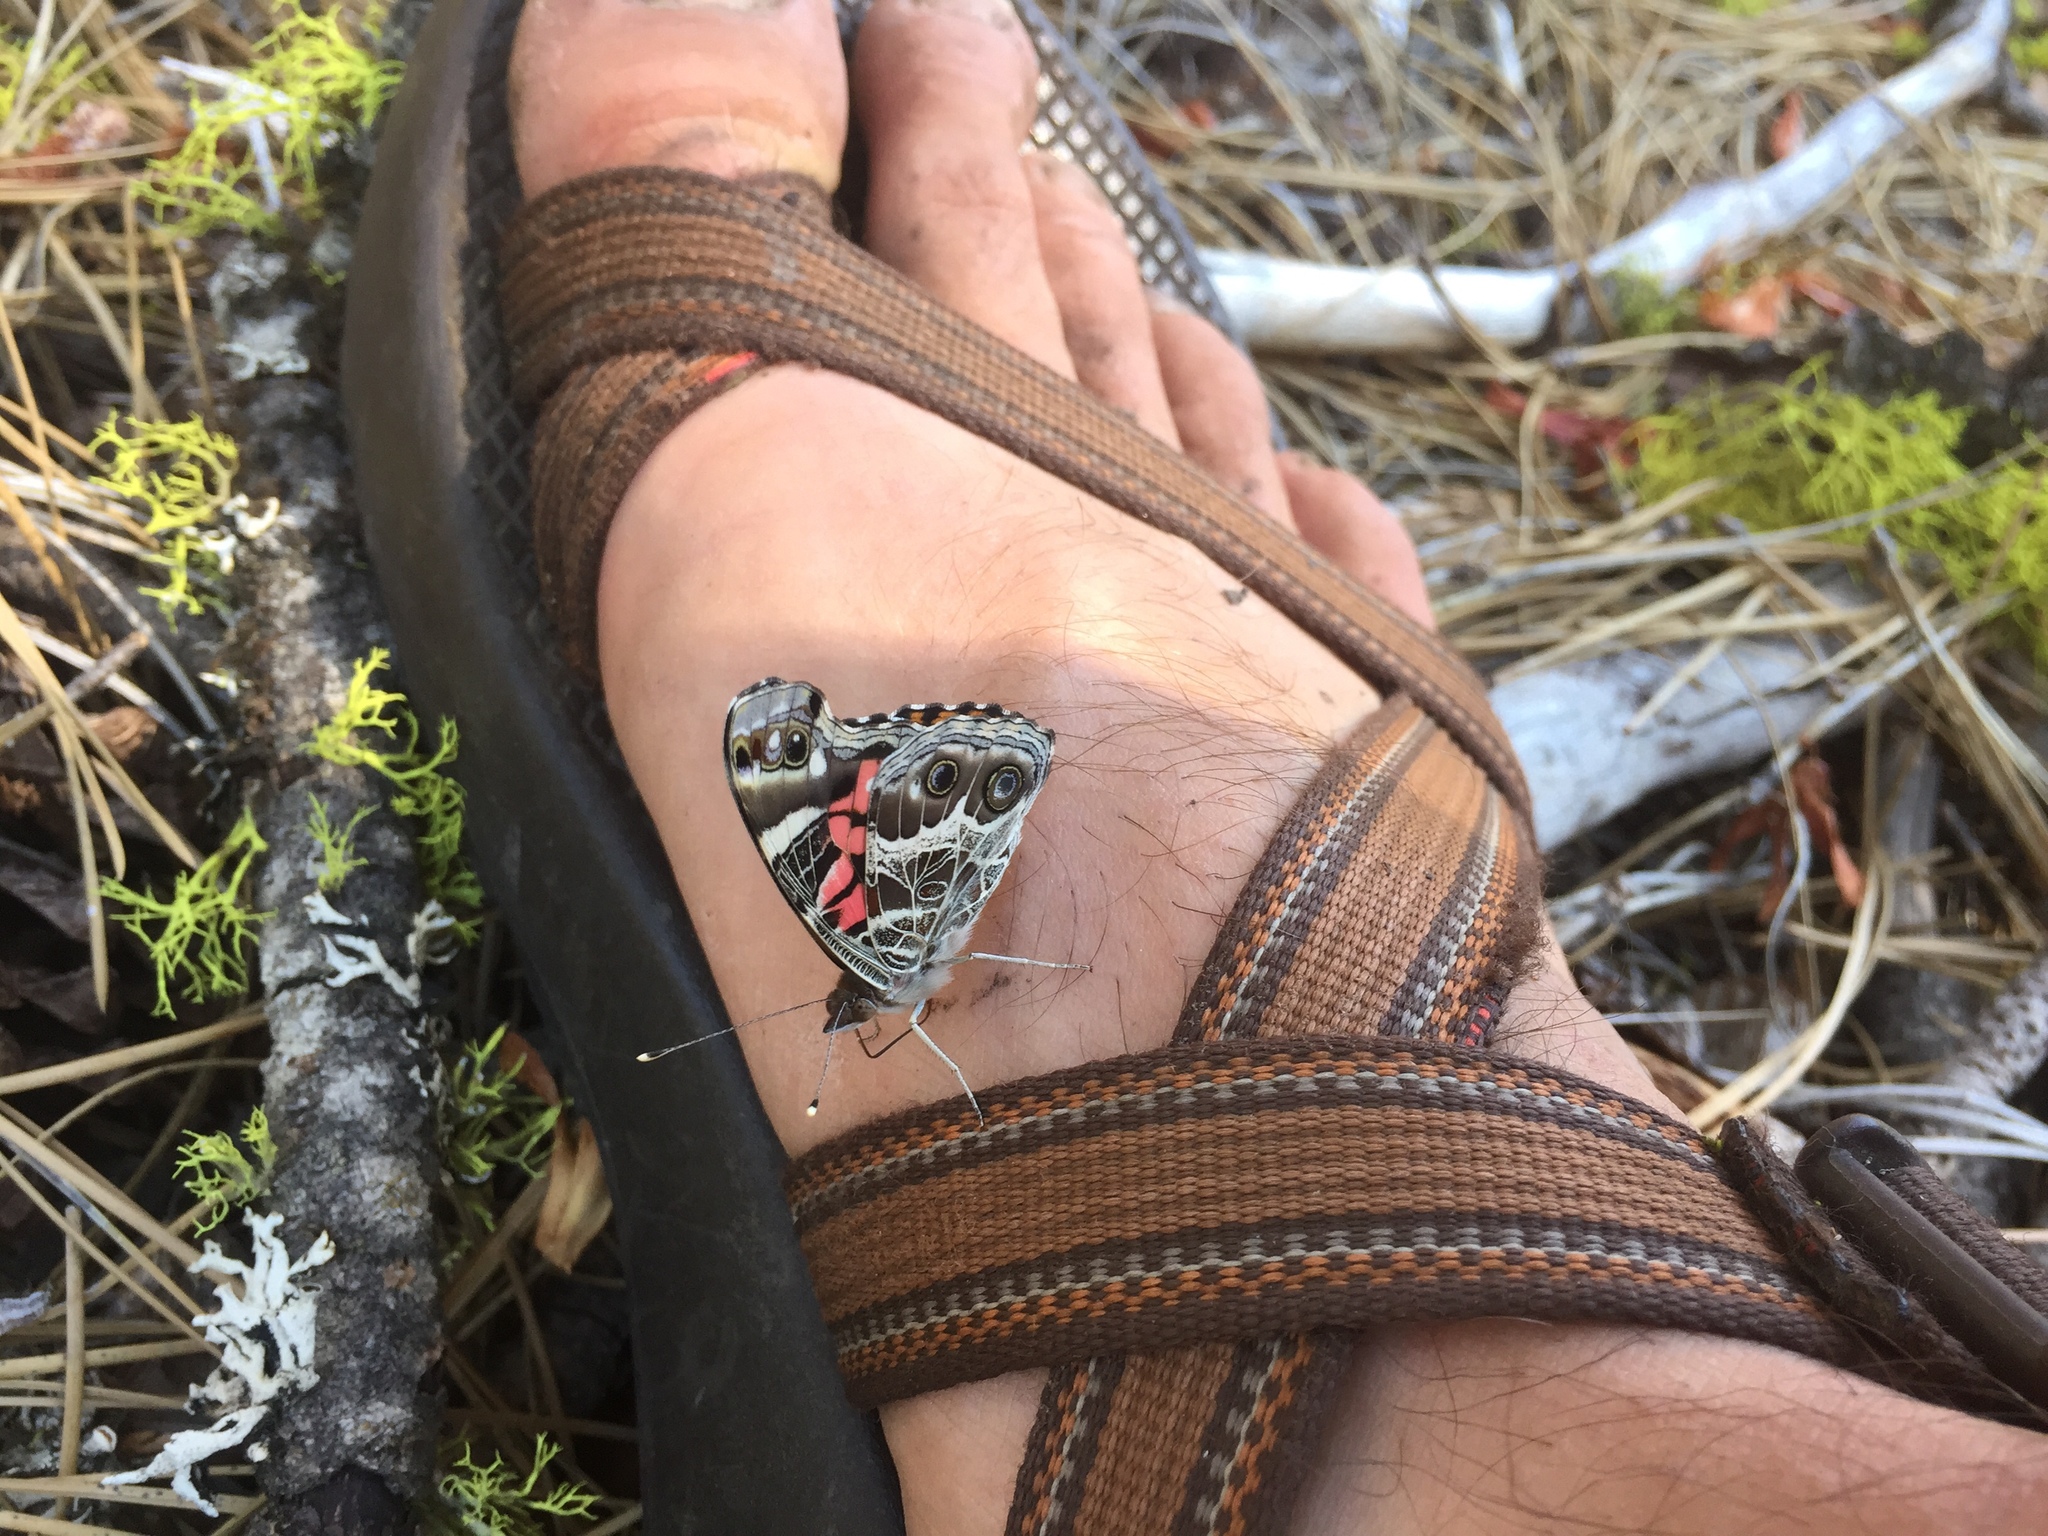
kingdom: Animalia
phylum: Arthropoda
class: Insecta
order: Lepidoptera
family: Nymphalidae
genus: Vanessa
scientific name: Vanessa virginiensis
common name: American lady
